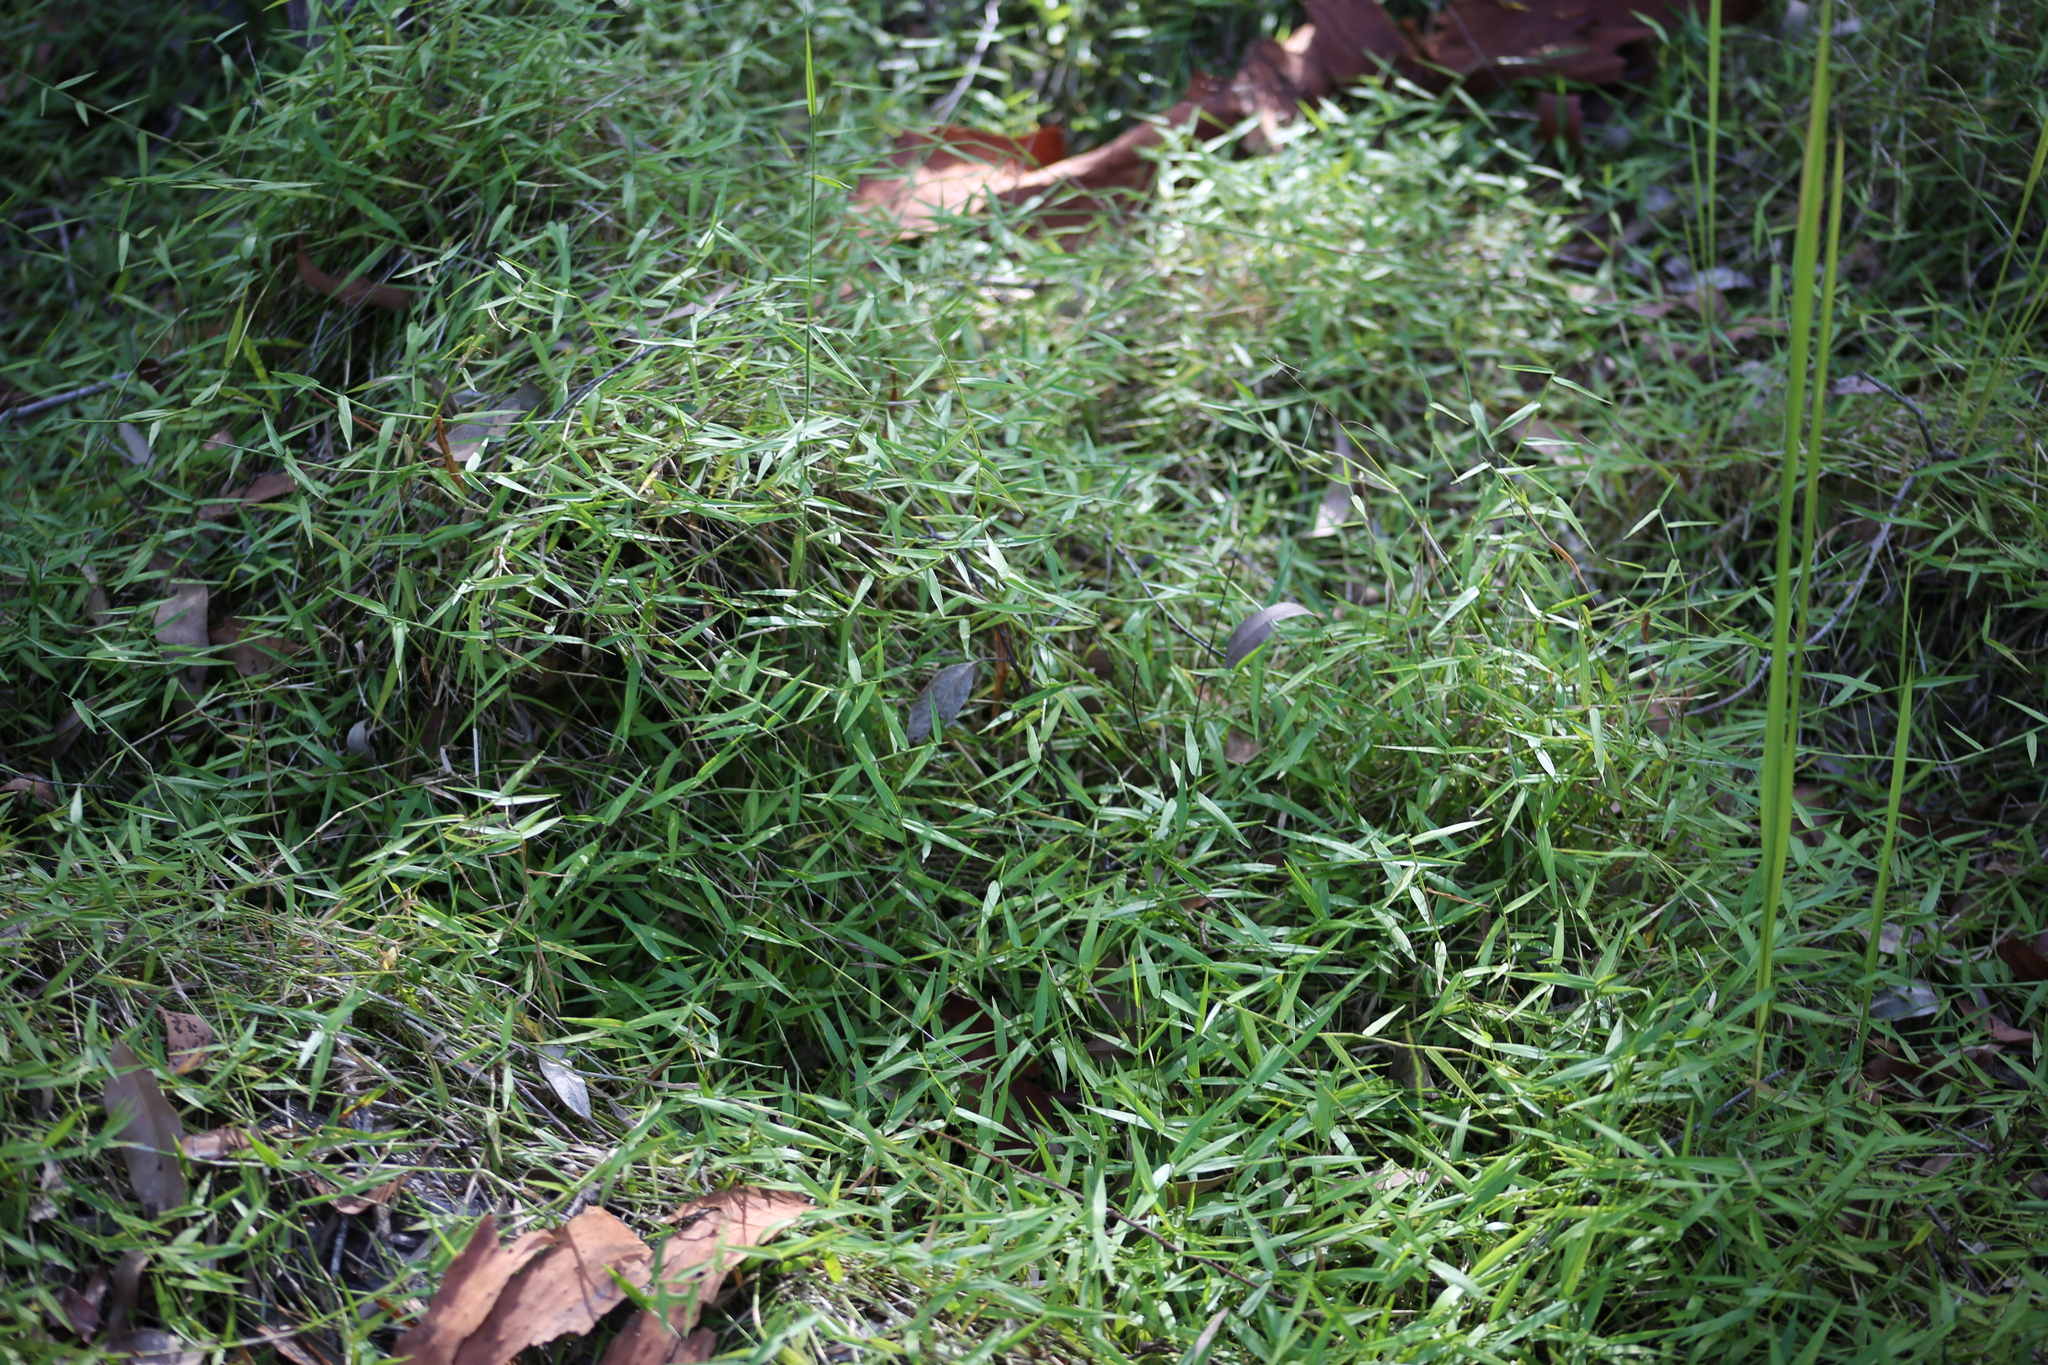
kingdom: Plantae
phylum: Tracheophyta
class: Liliopsida
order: Poales
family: Poaceae
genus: Ottochloa
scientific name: Ottochloa gracillima
